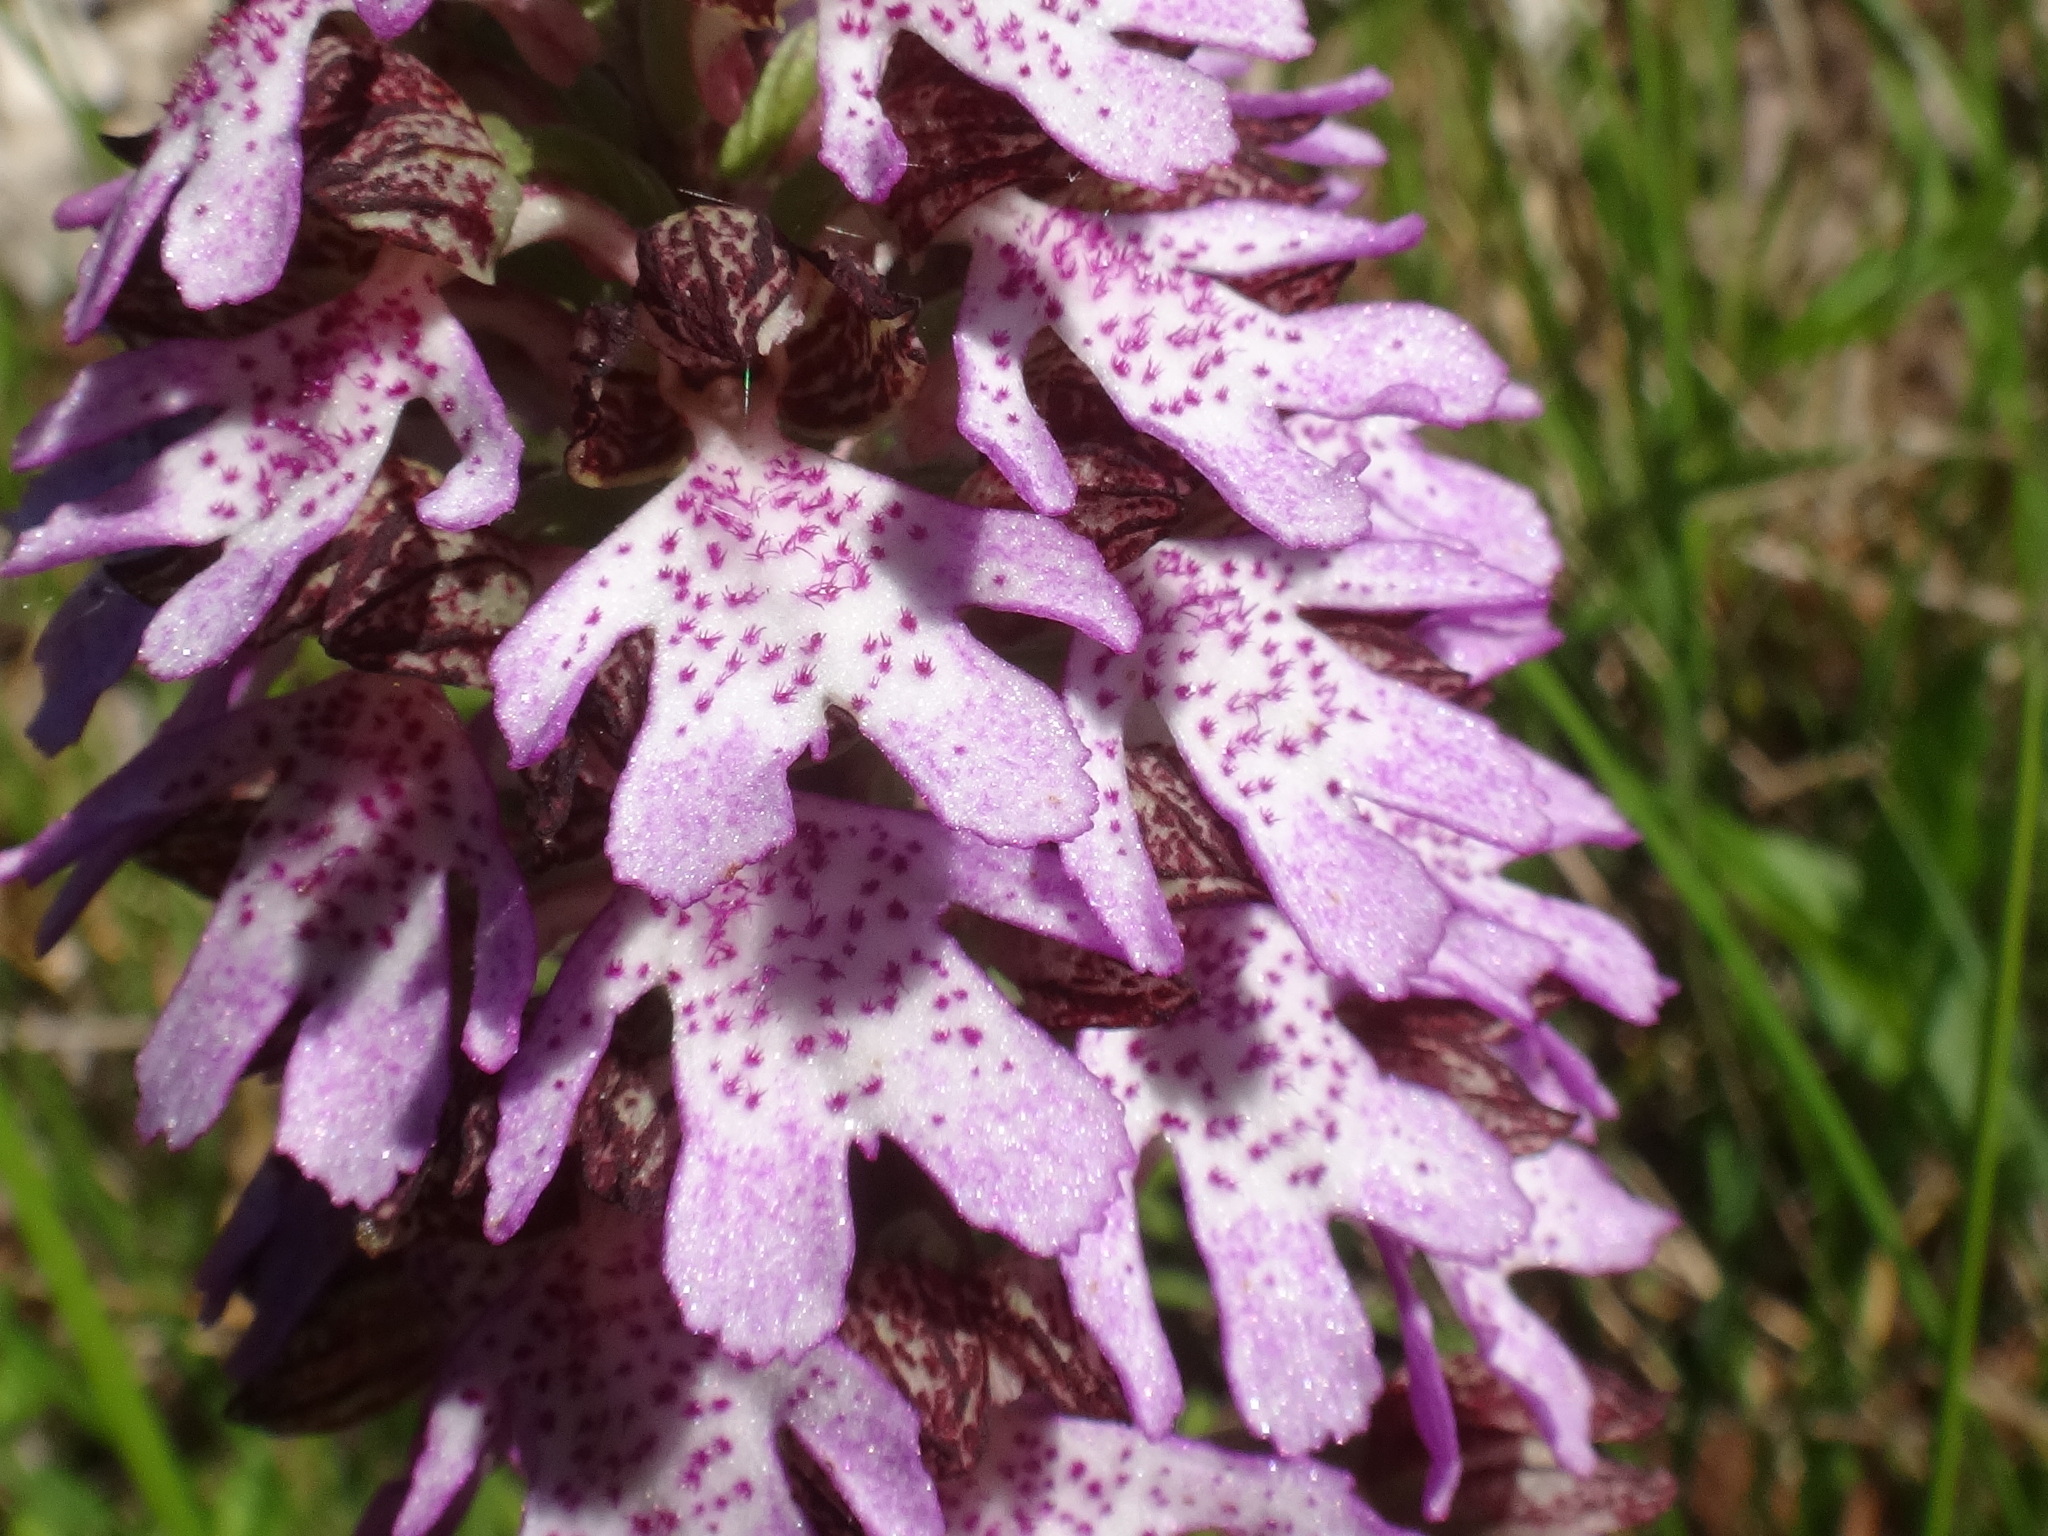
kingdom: Plantae
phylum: Tracheophyta
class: Liliopsida
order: Asparagales
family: Orchidaceae
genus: Orchis
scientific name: Orchis purpurea
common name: Lady orchid
